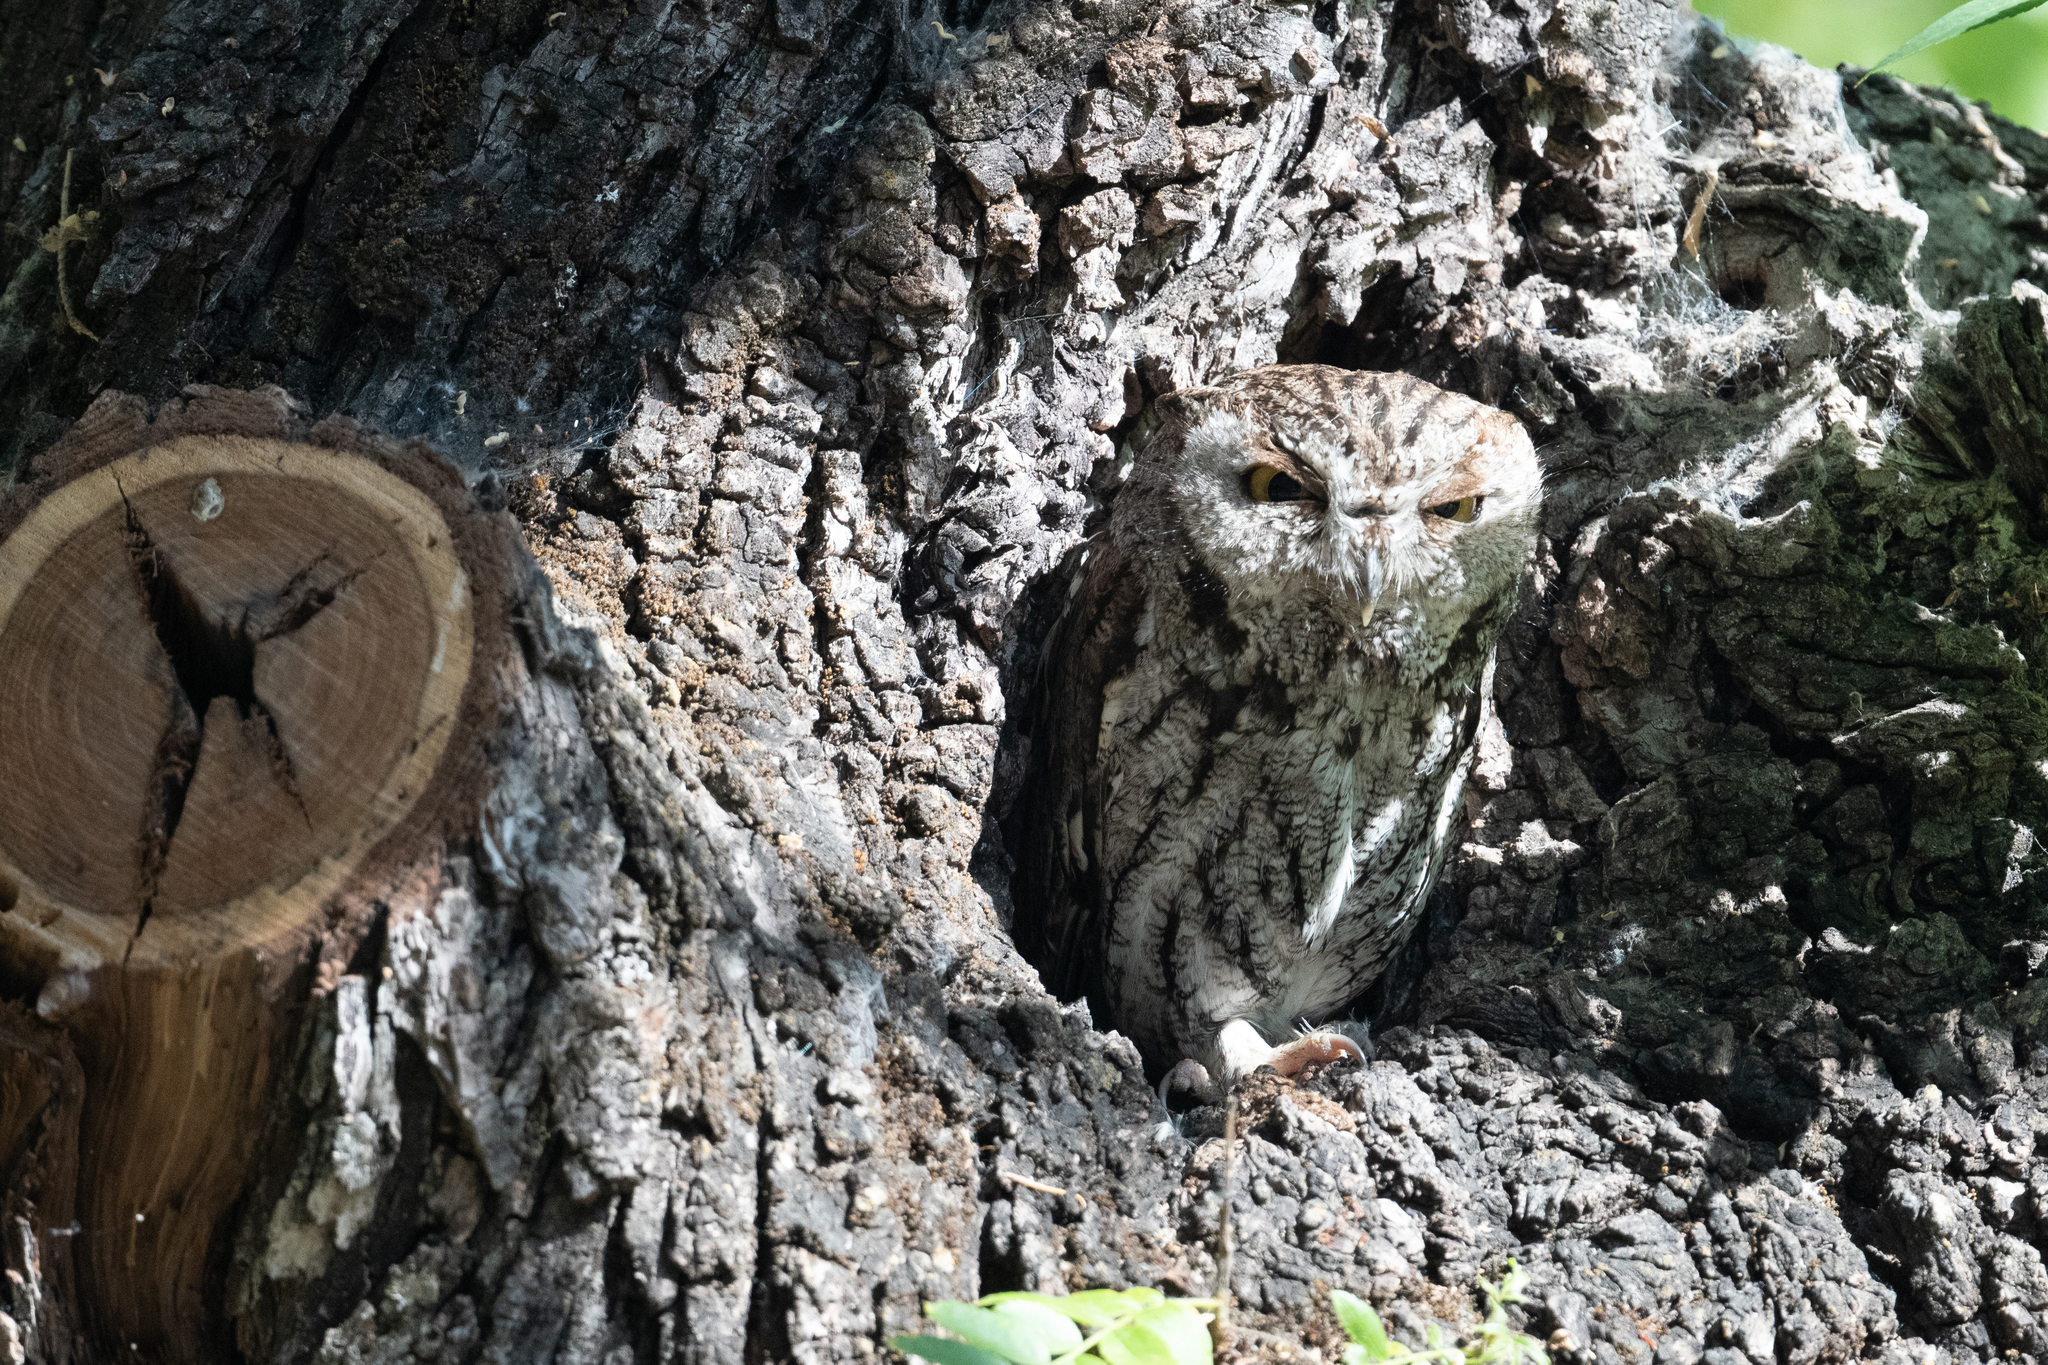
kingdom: Animalia
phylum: Chordata
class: Aves
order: Strigiformes
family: Strigidae
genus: Megascops
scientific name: Megascops kennicottii
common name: Western screech-owl
